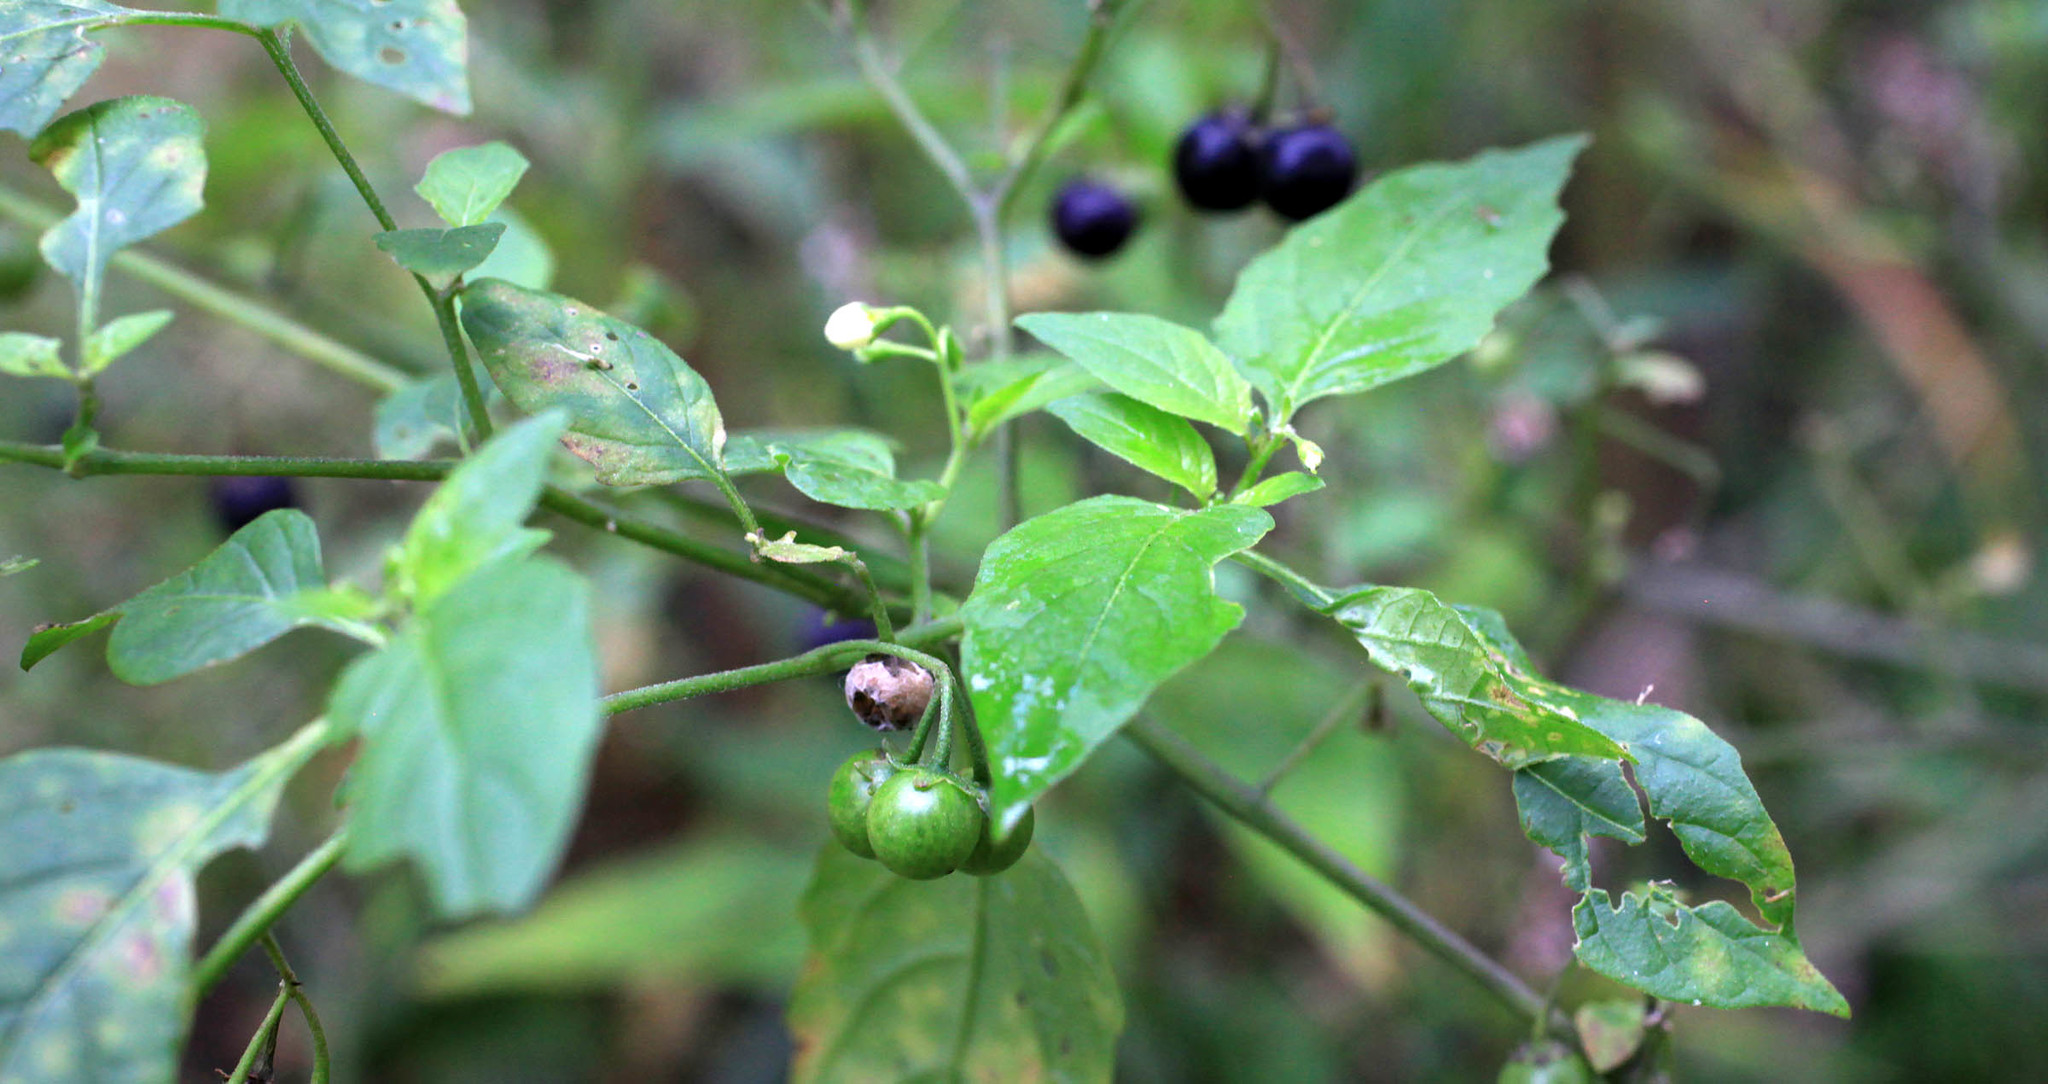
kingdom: Plantae
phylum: Tracheophyta
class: Magnoliopsida
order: Solanales
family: Solanaceae
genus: Solanum
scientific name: Solanum emulans
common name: Eastern black nightshade
